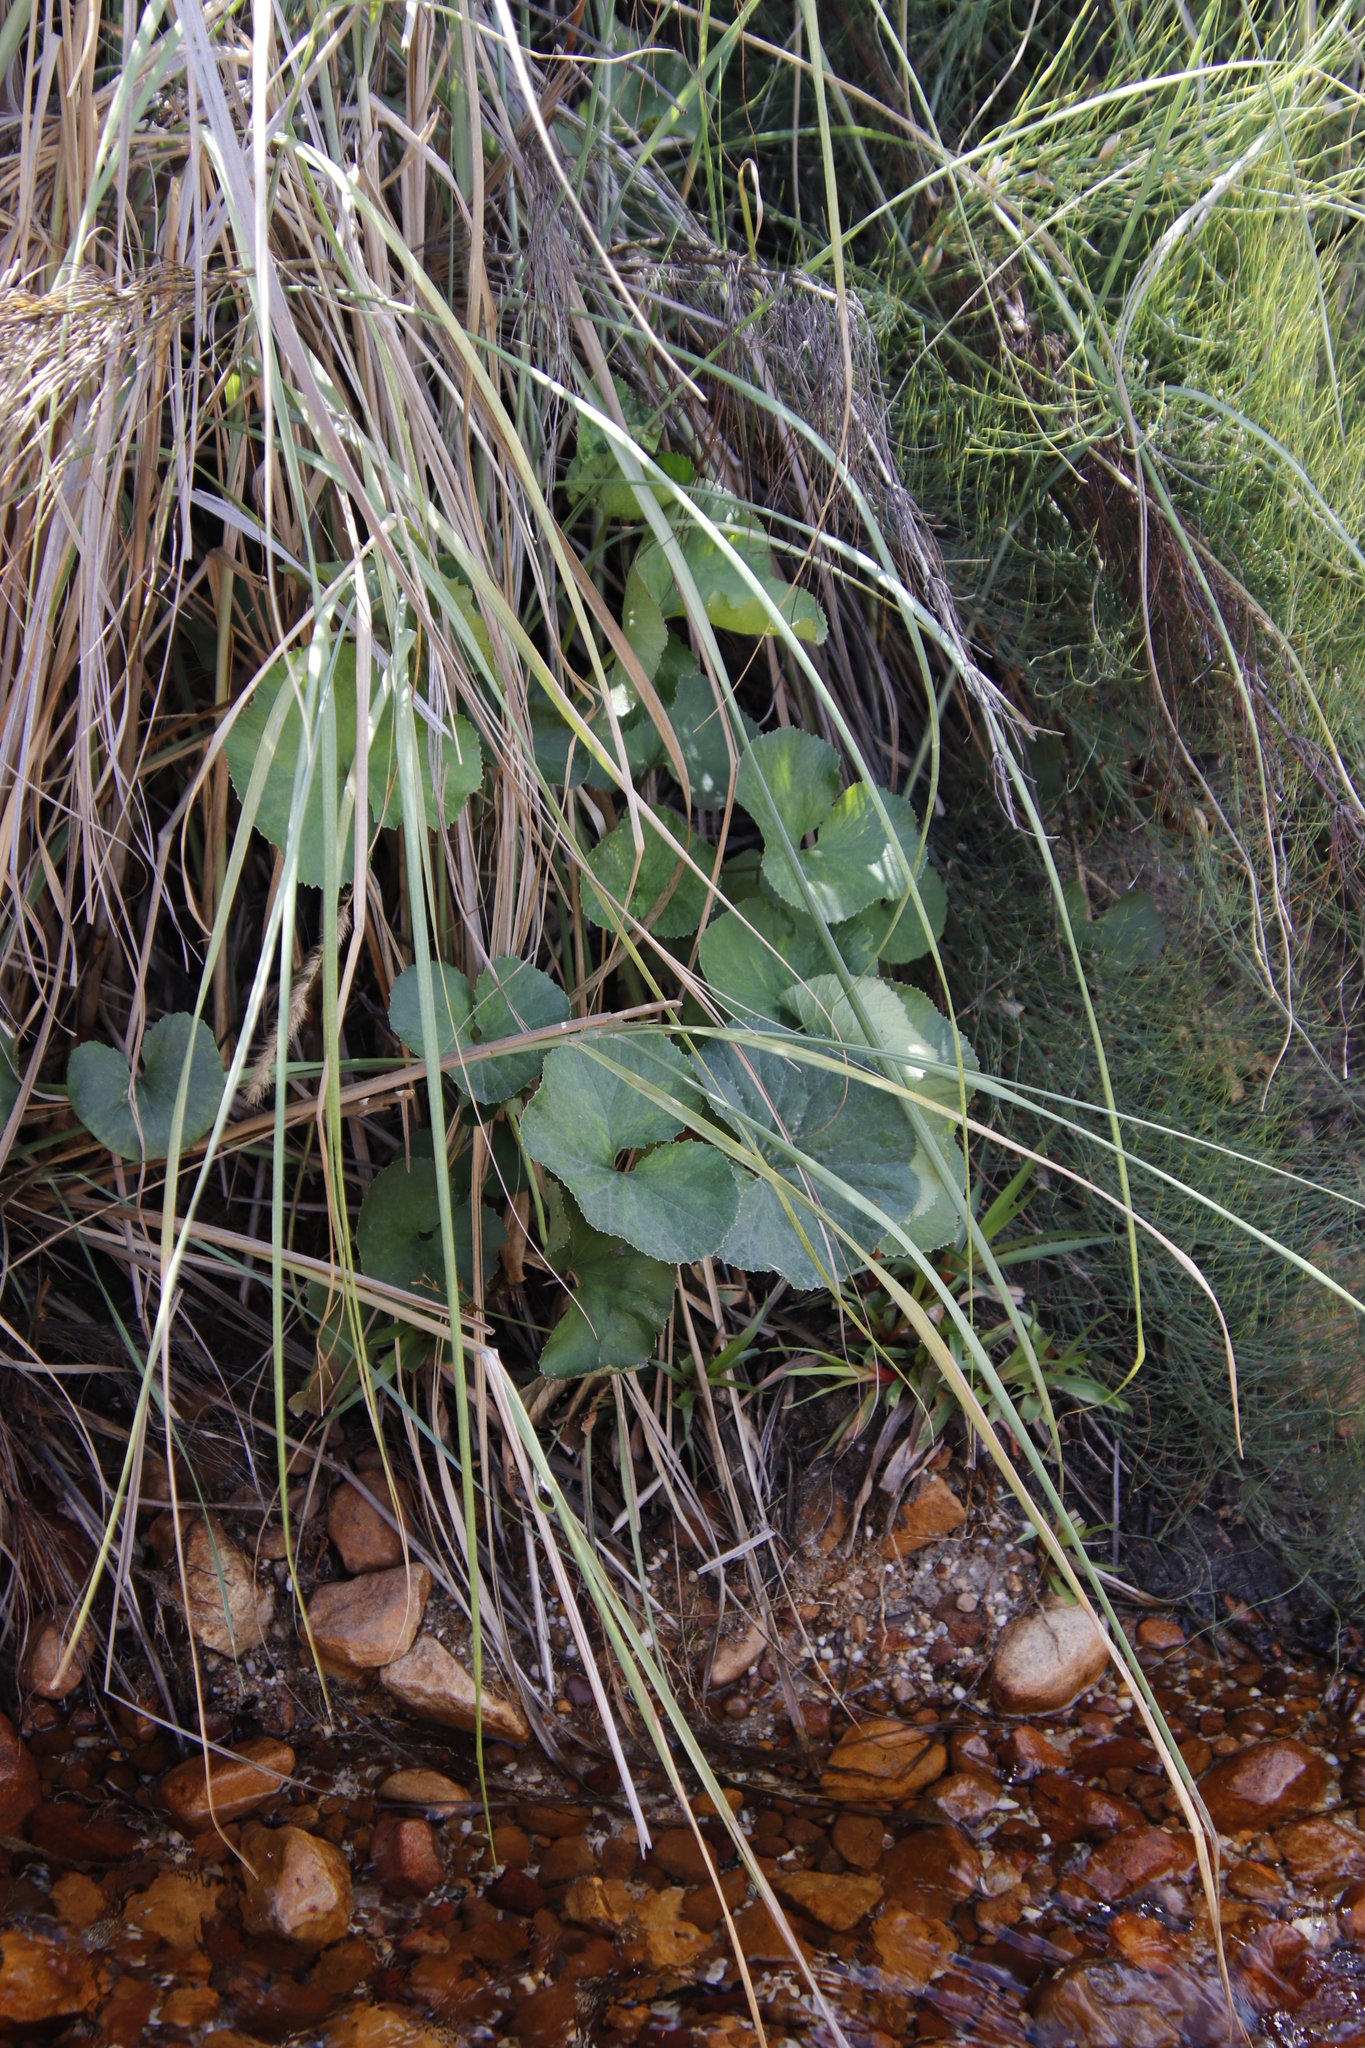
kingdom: Plantae
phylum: Tracheophyta
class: Magnoliopsida
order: Gunnerales
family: Gunneraceae
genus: Gunnera
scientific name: Gunnera perpensa
